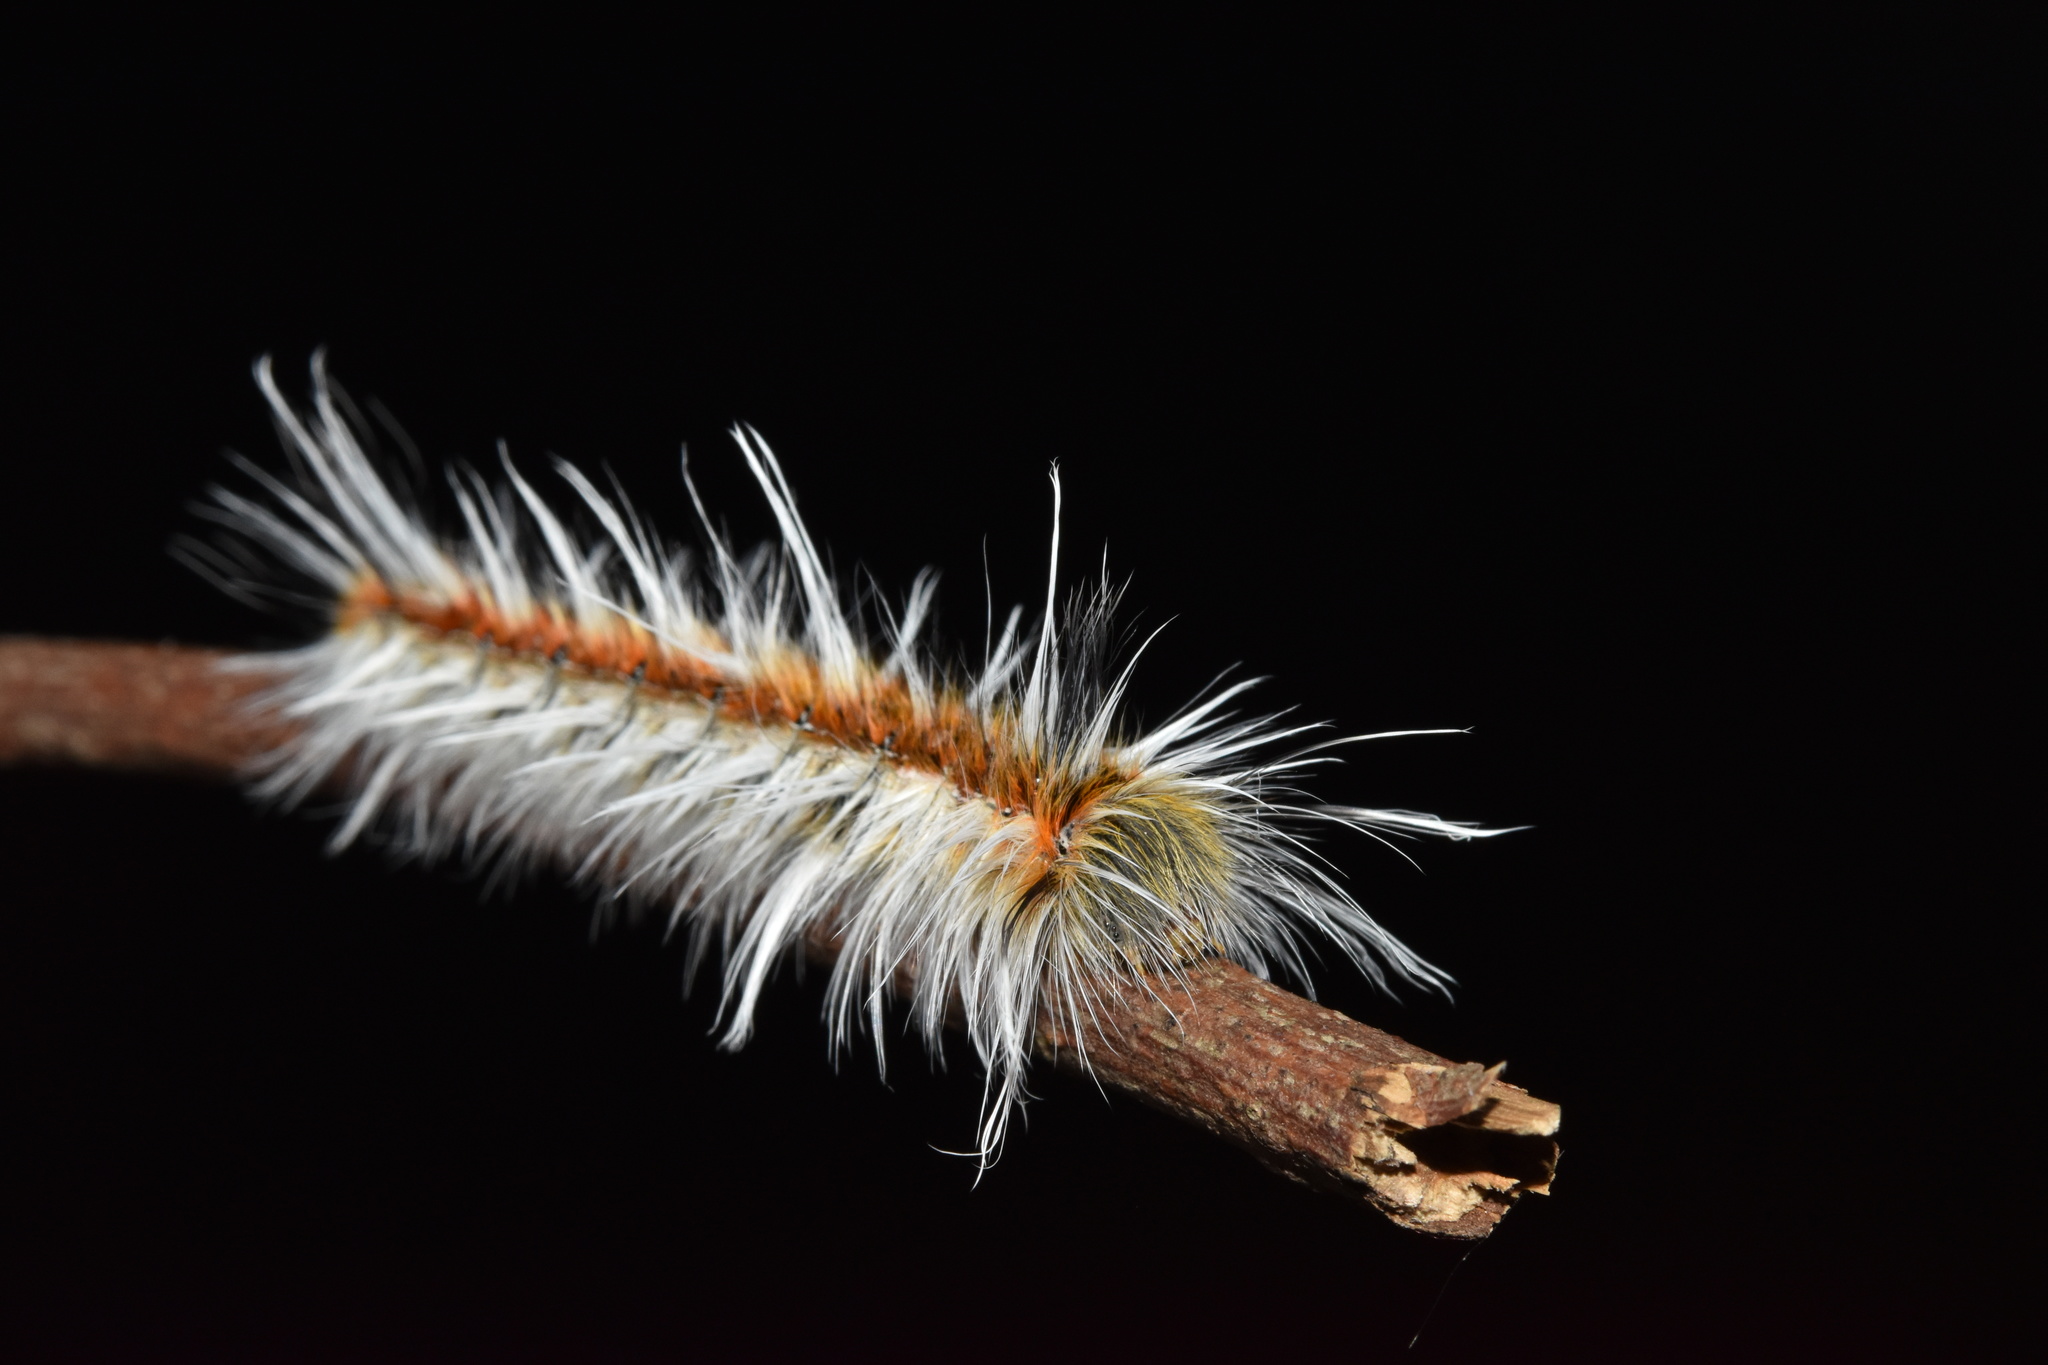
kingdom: Animalia
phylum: Arthropoda
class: Insecta
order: Lepidoptera
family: Lasiocampidae
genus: Henometa
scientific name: Henometa clarki
